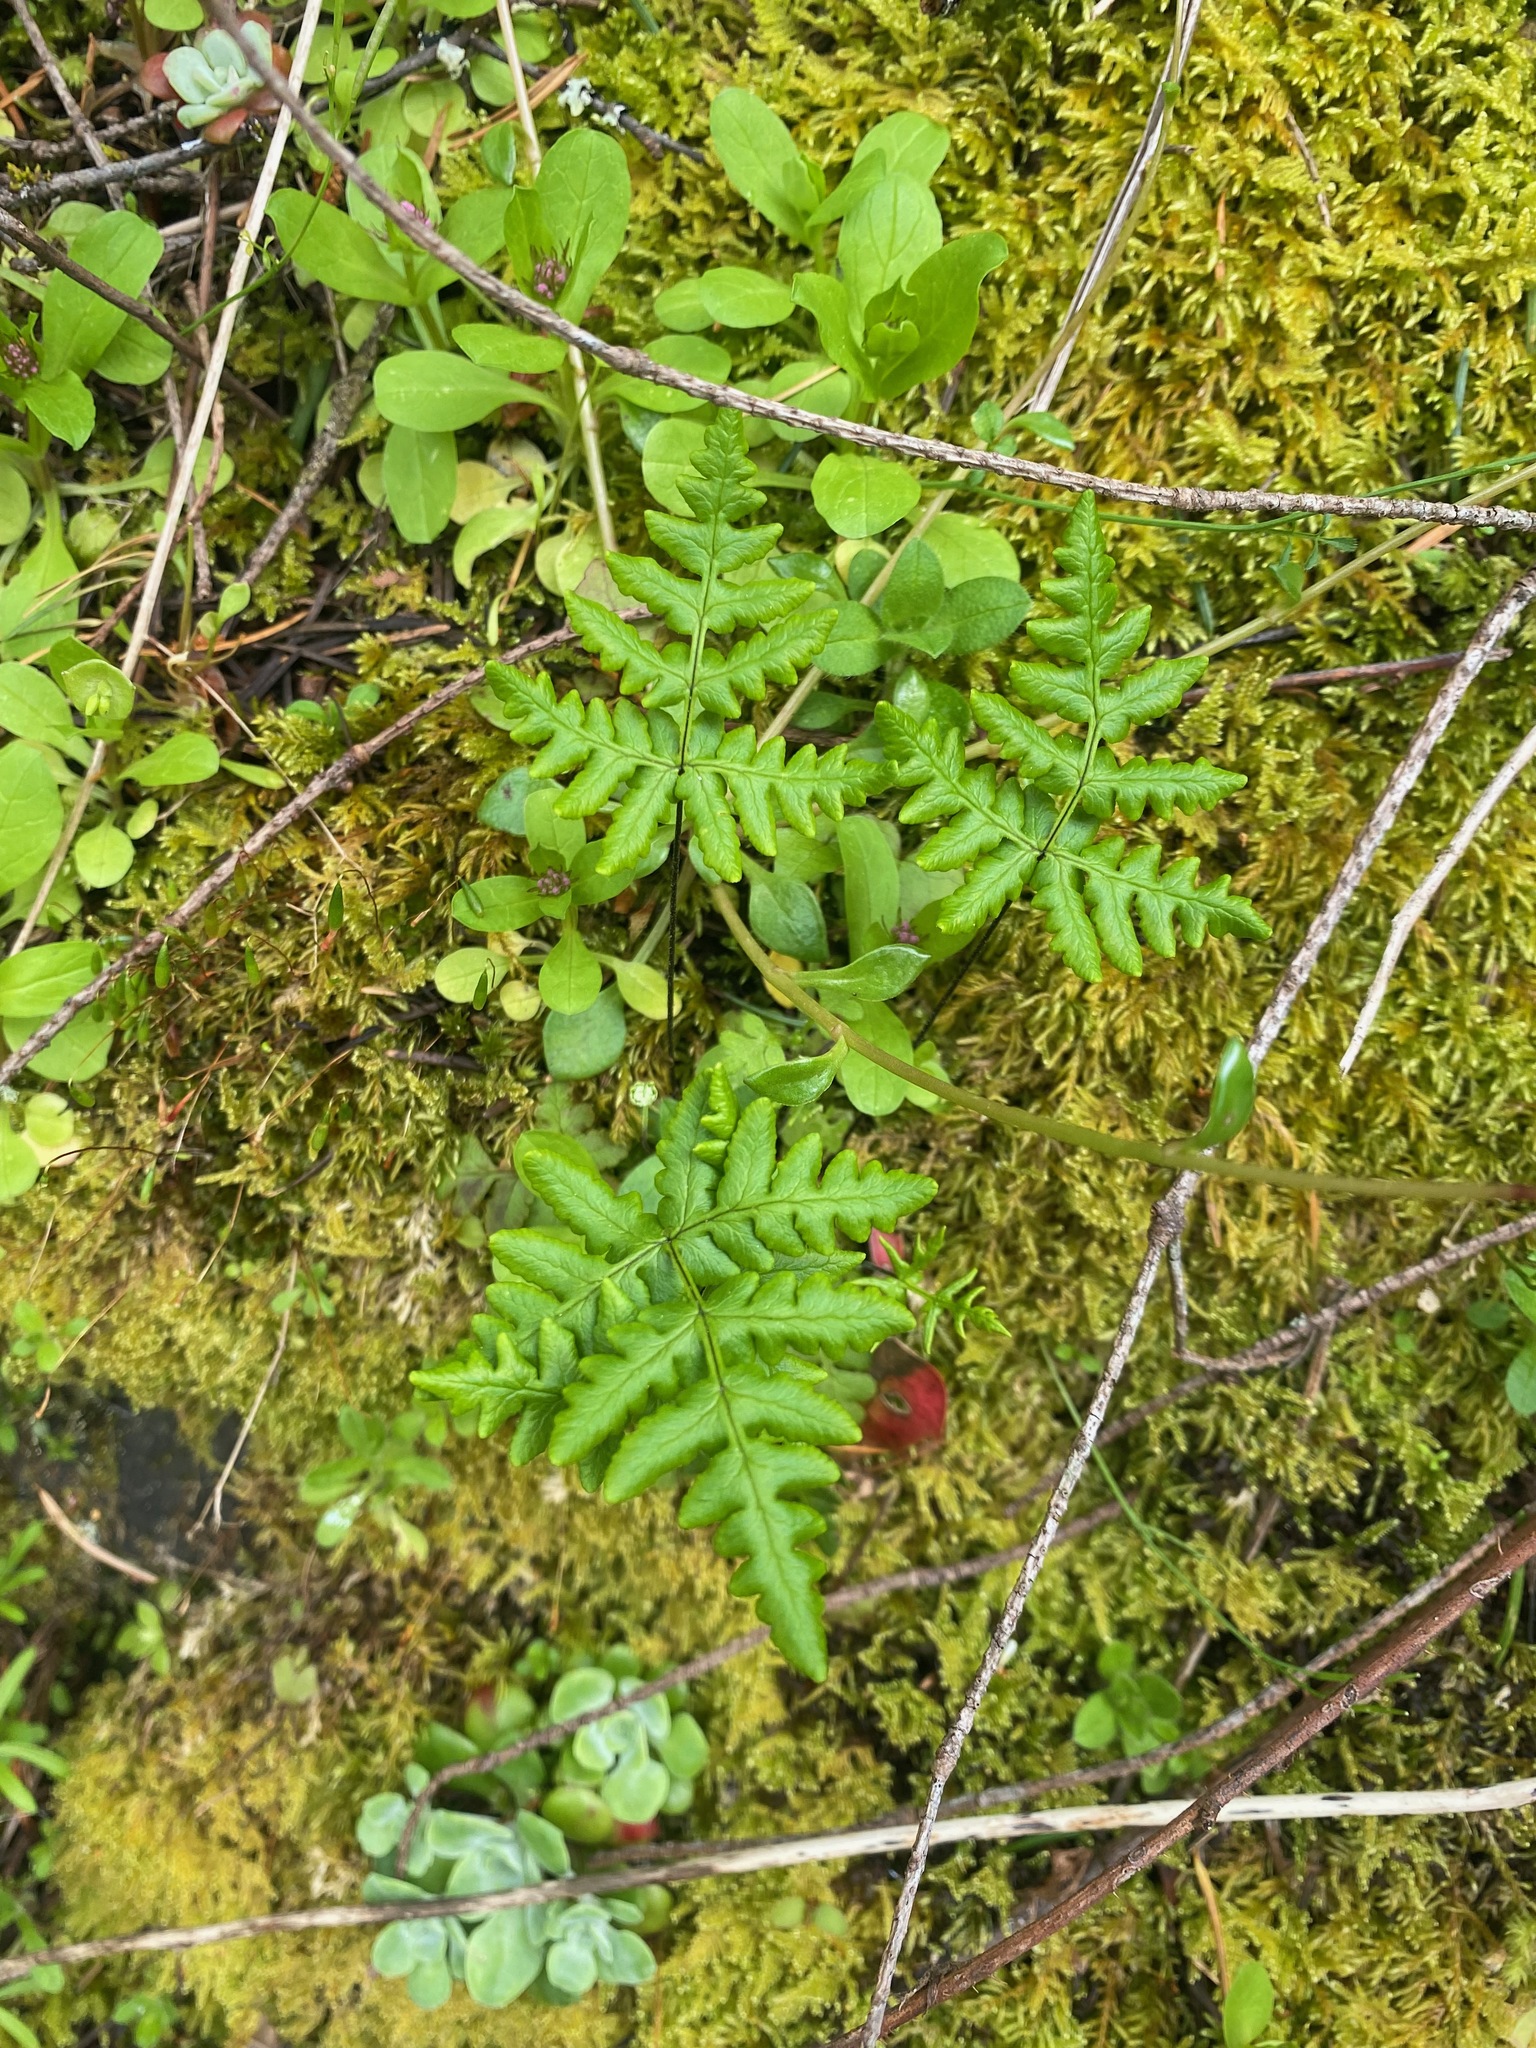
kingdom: Plantae
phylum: Tracheophyta
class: Polypodiopsida
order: Polypodiales
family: Pteridaceae
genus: Pentagramma
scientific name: Pentagramma triangularis
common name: Gold fern
